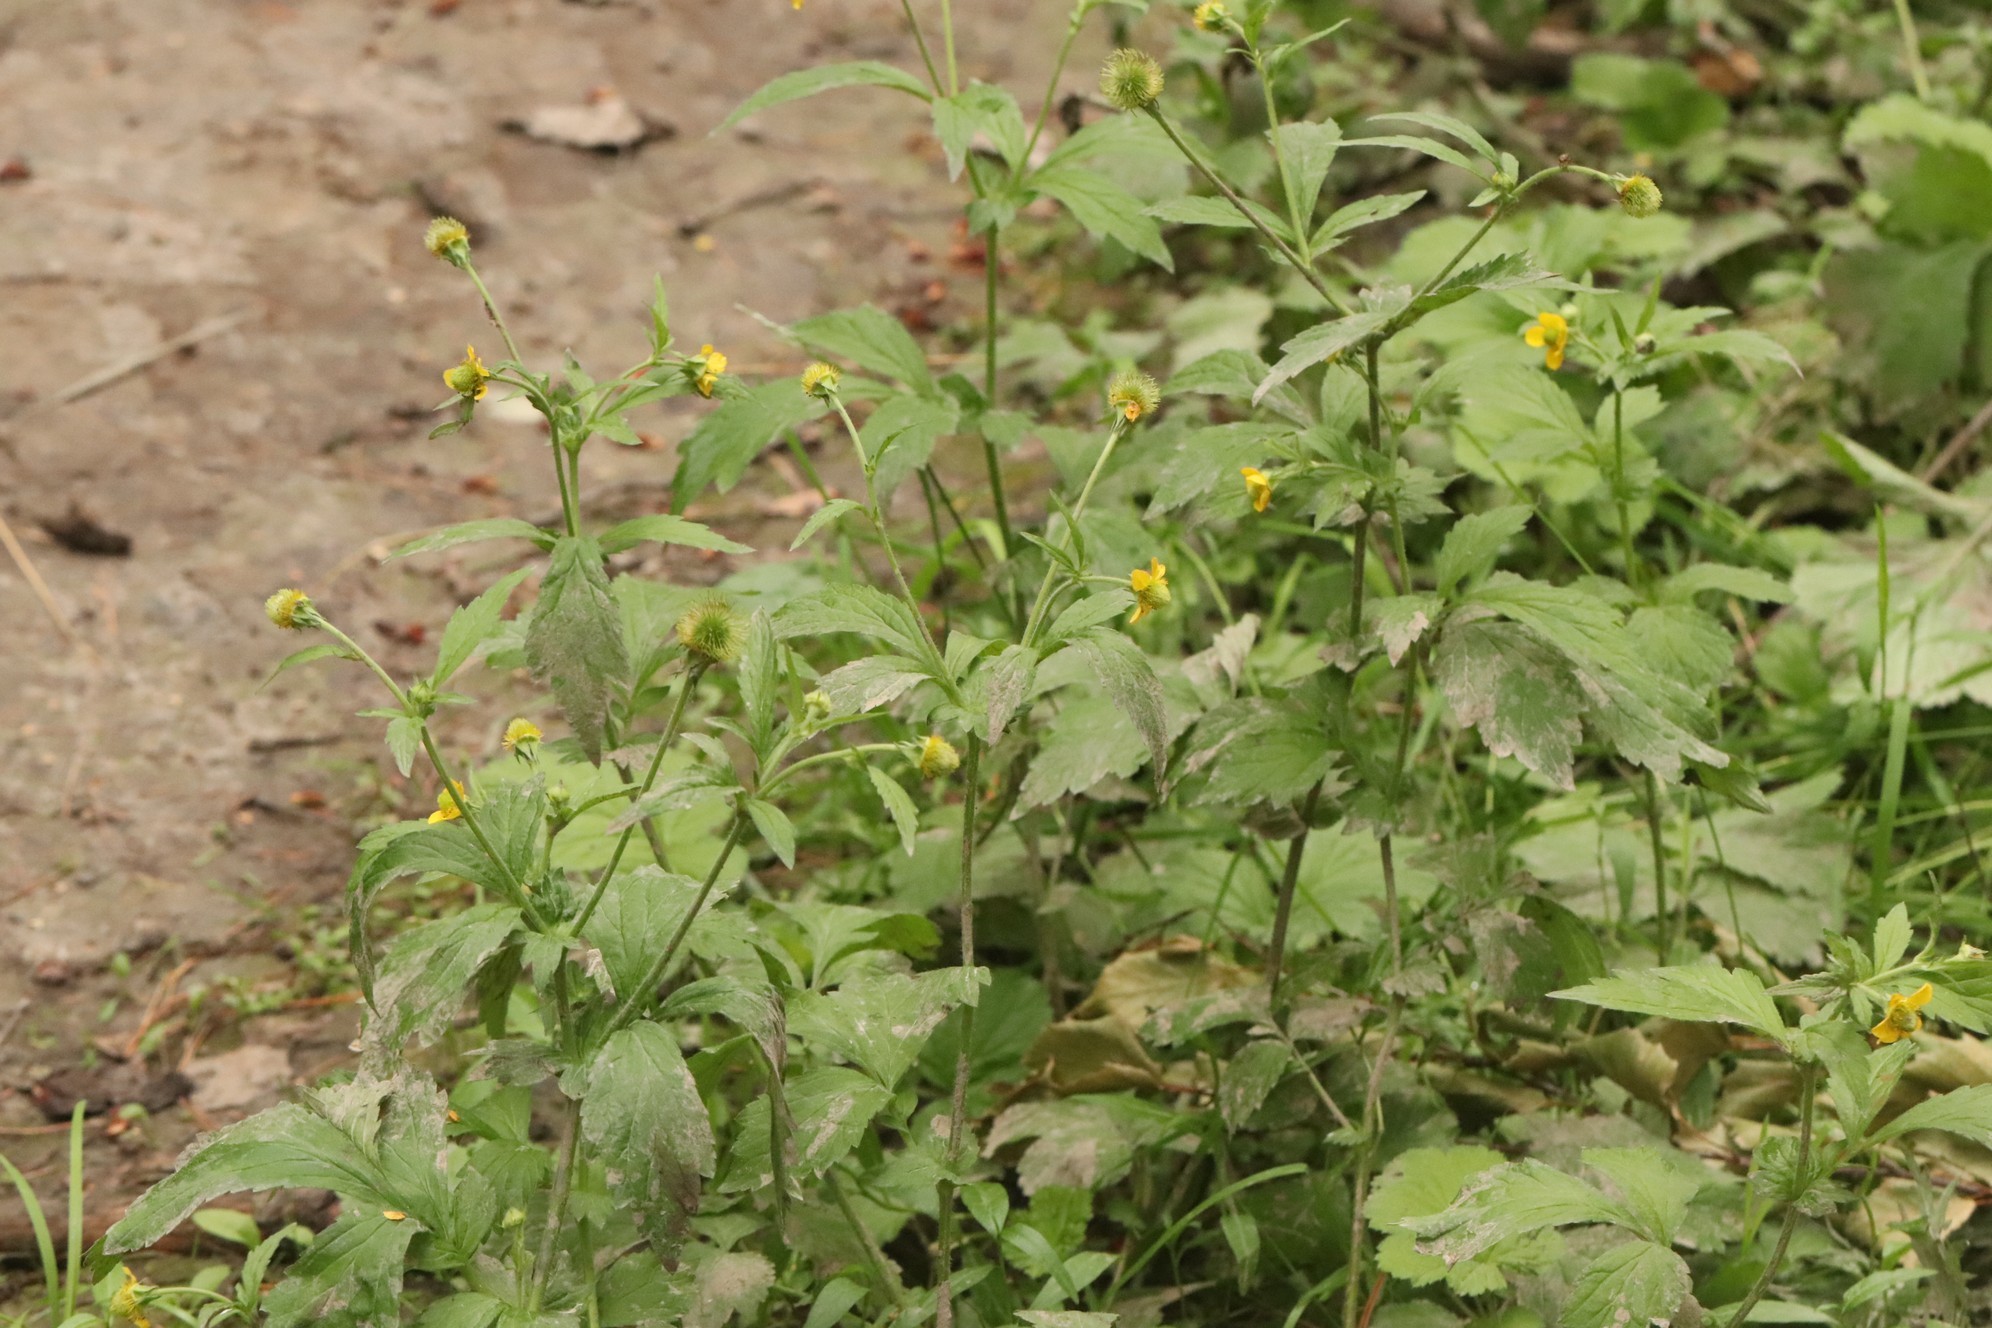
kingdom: Plantae
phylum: Tracheophyta
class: Magnoliopsida
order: Rosales
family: Rosaceae
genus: Geum
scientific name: Geum aleppicum
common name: Yellow avens
